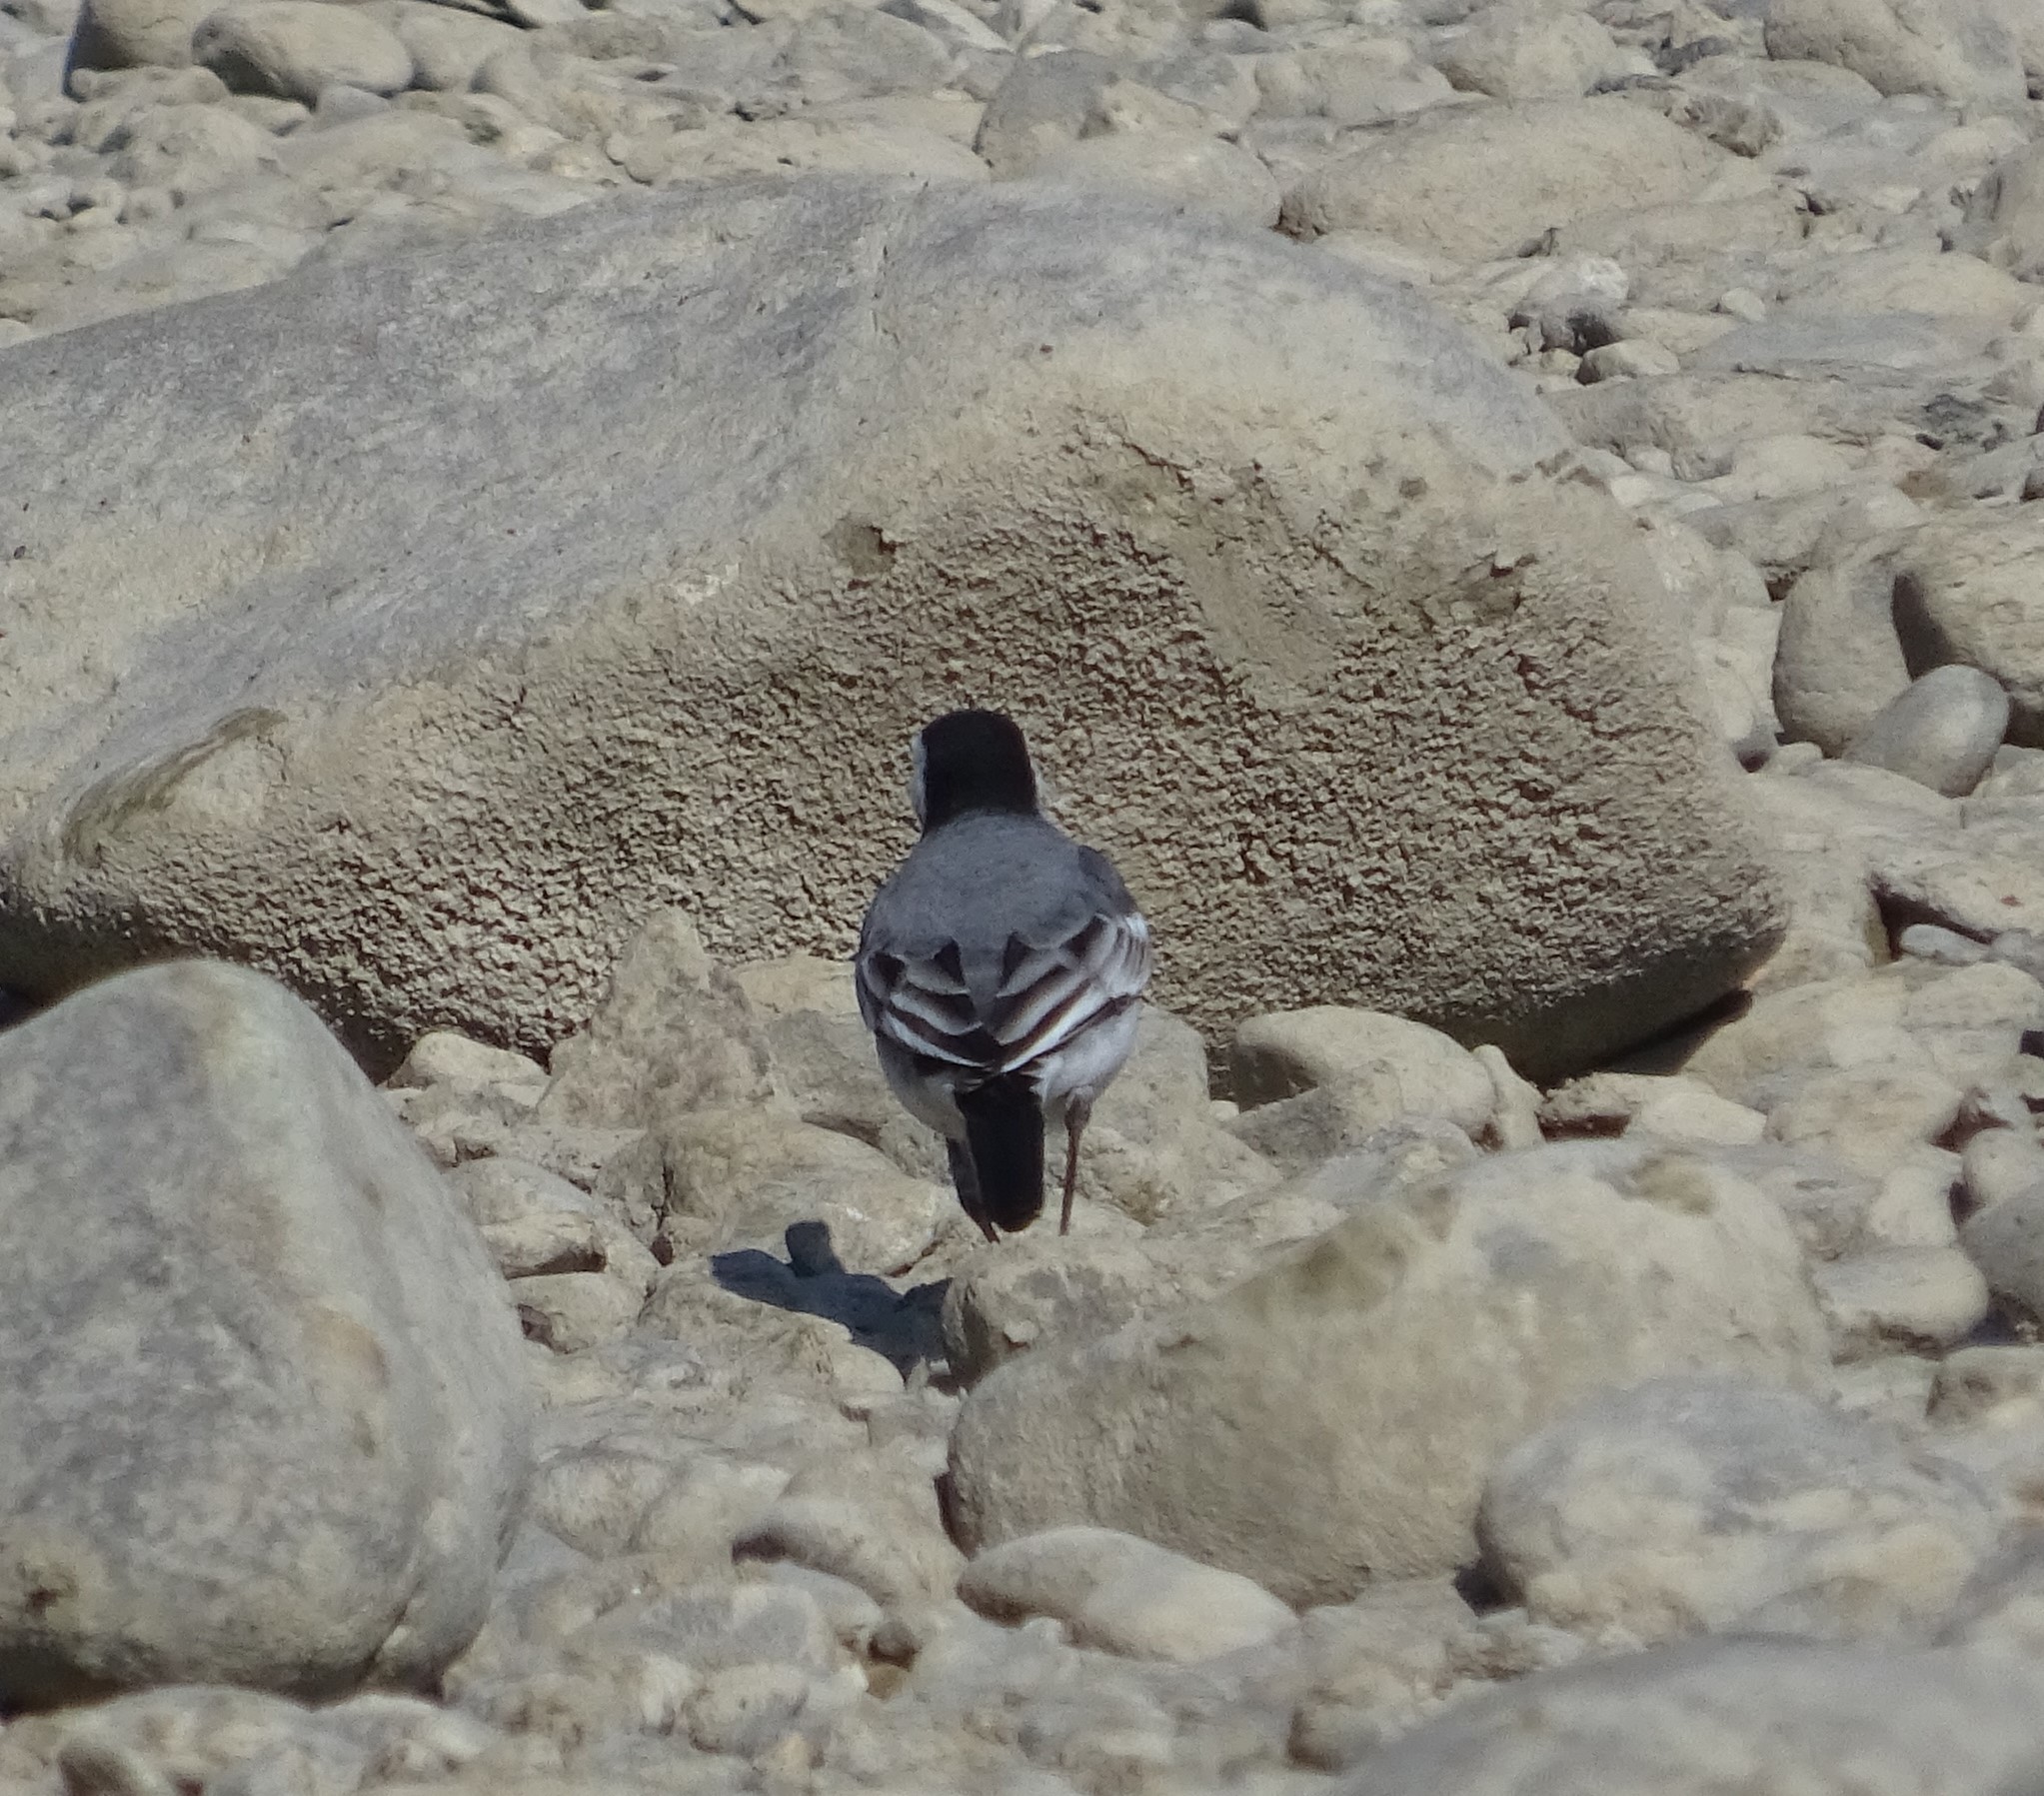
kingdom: Animalia
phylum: Chordata
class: Aves
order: Passeriformes
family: Motacillidae
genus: Motacilla
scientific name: Motacilla alba
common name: White wagtail
